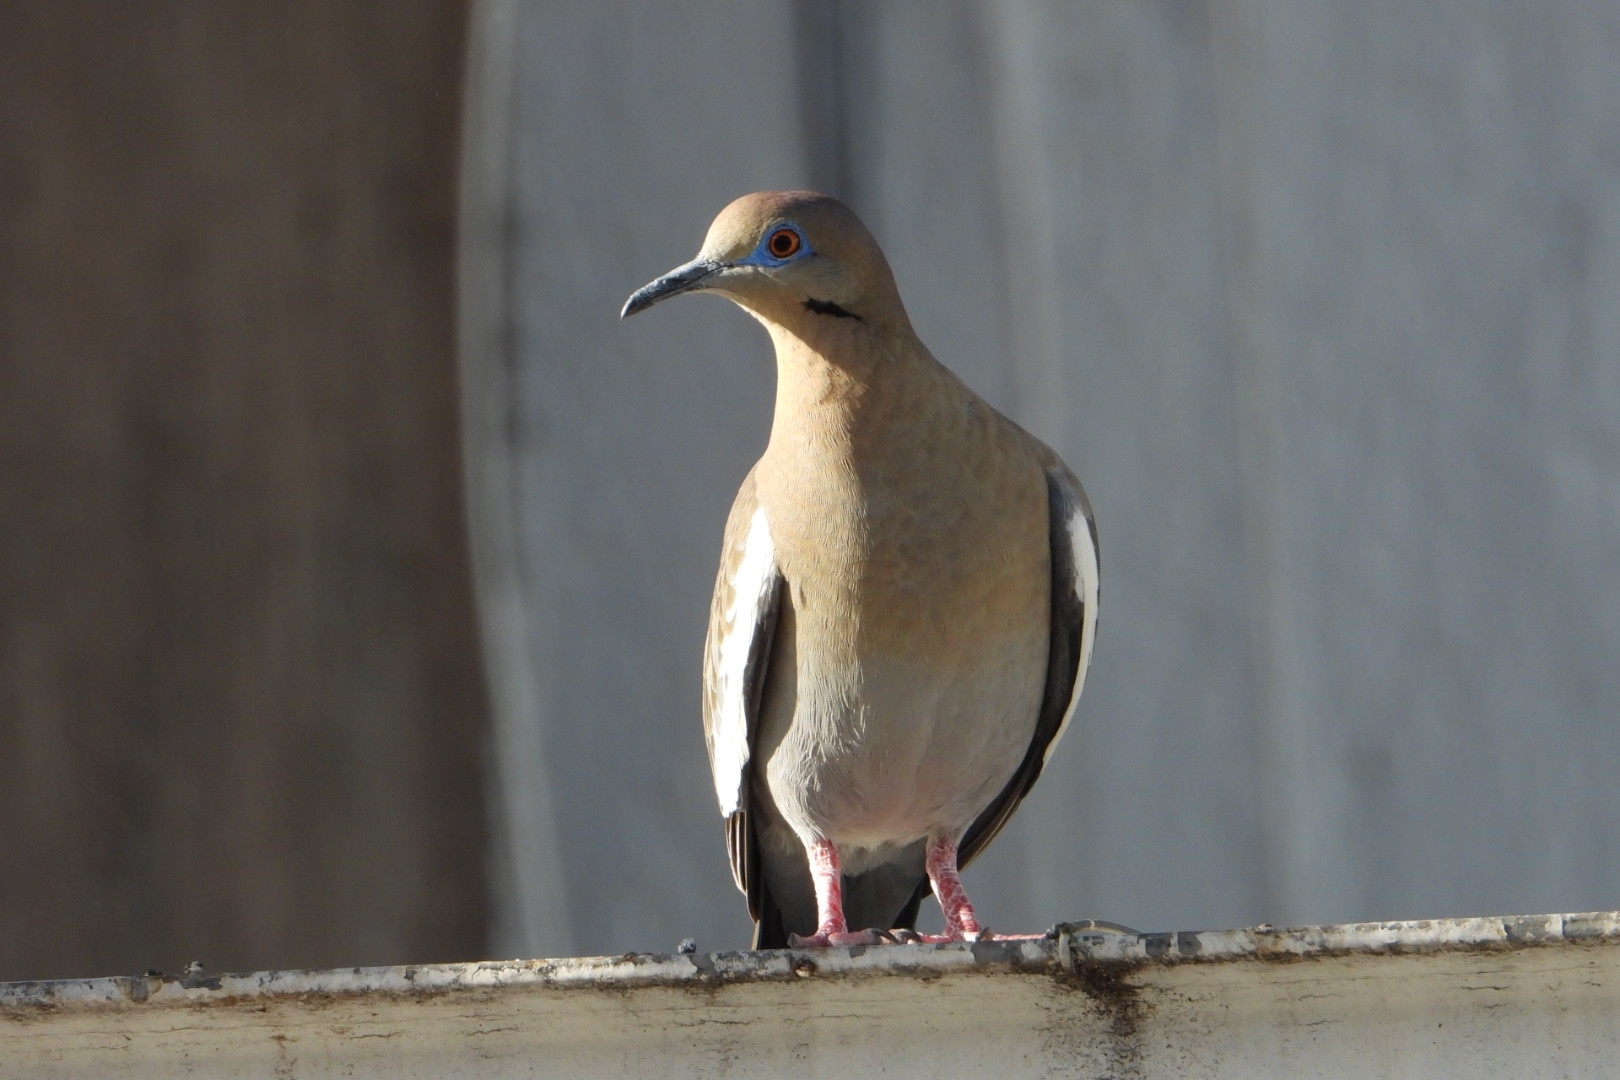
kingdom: Animalia
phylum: Chordata
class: Aves
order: Columbiformes
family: Columbidae
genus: Zenaida
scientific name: Zenaida asiatica
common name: White-winged dove
